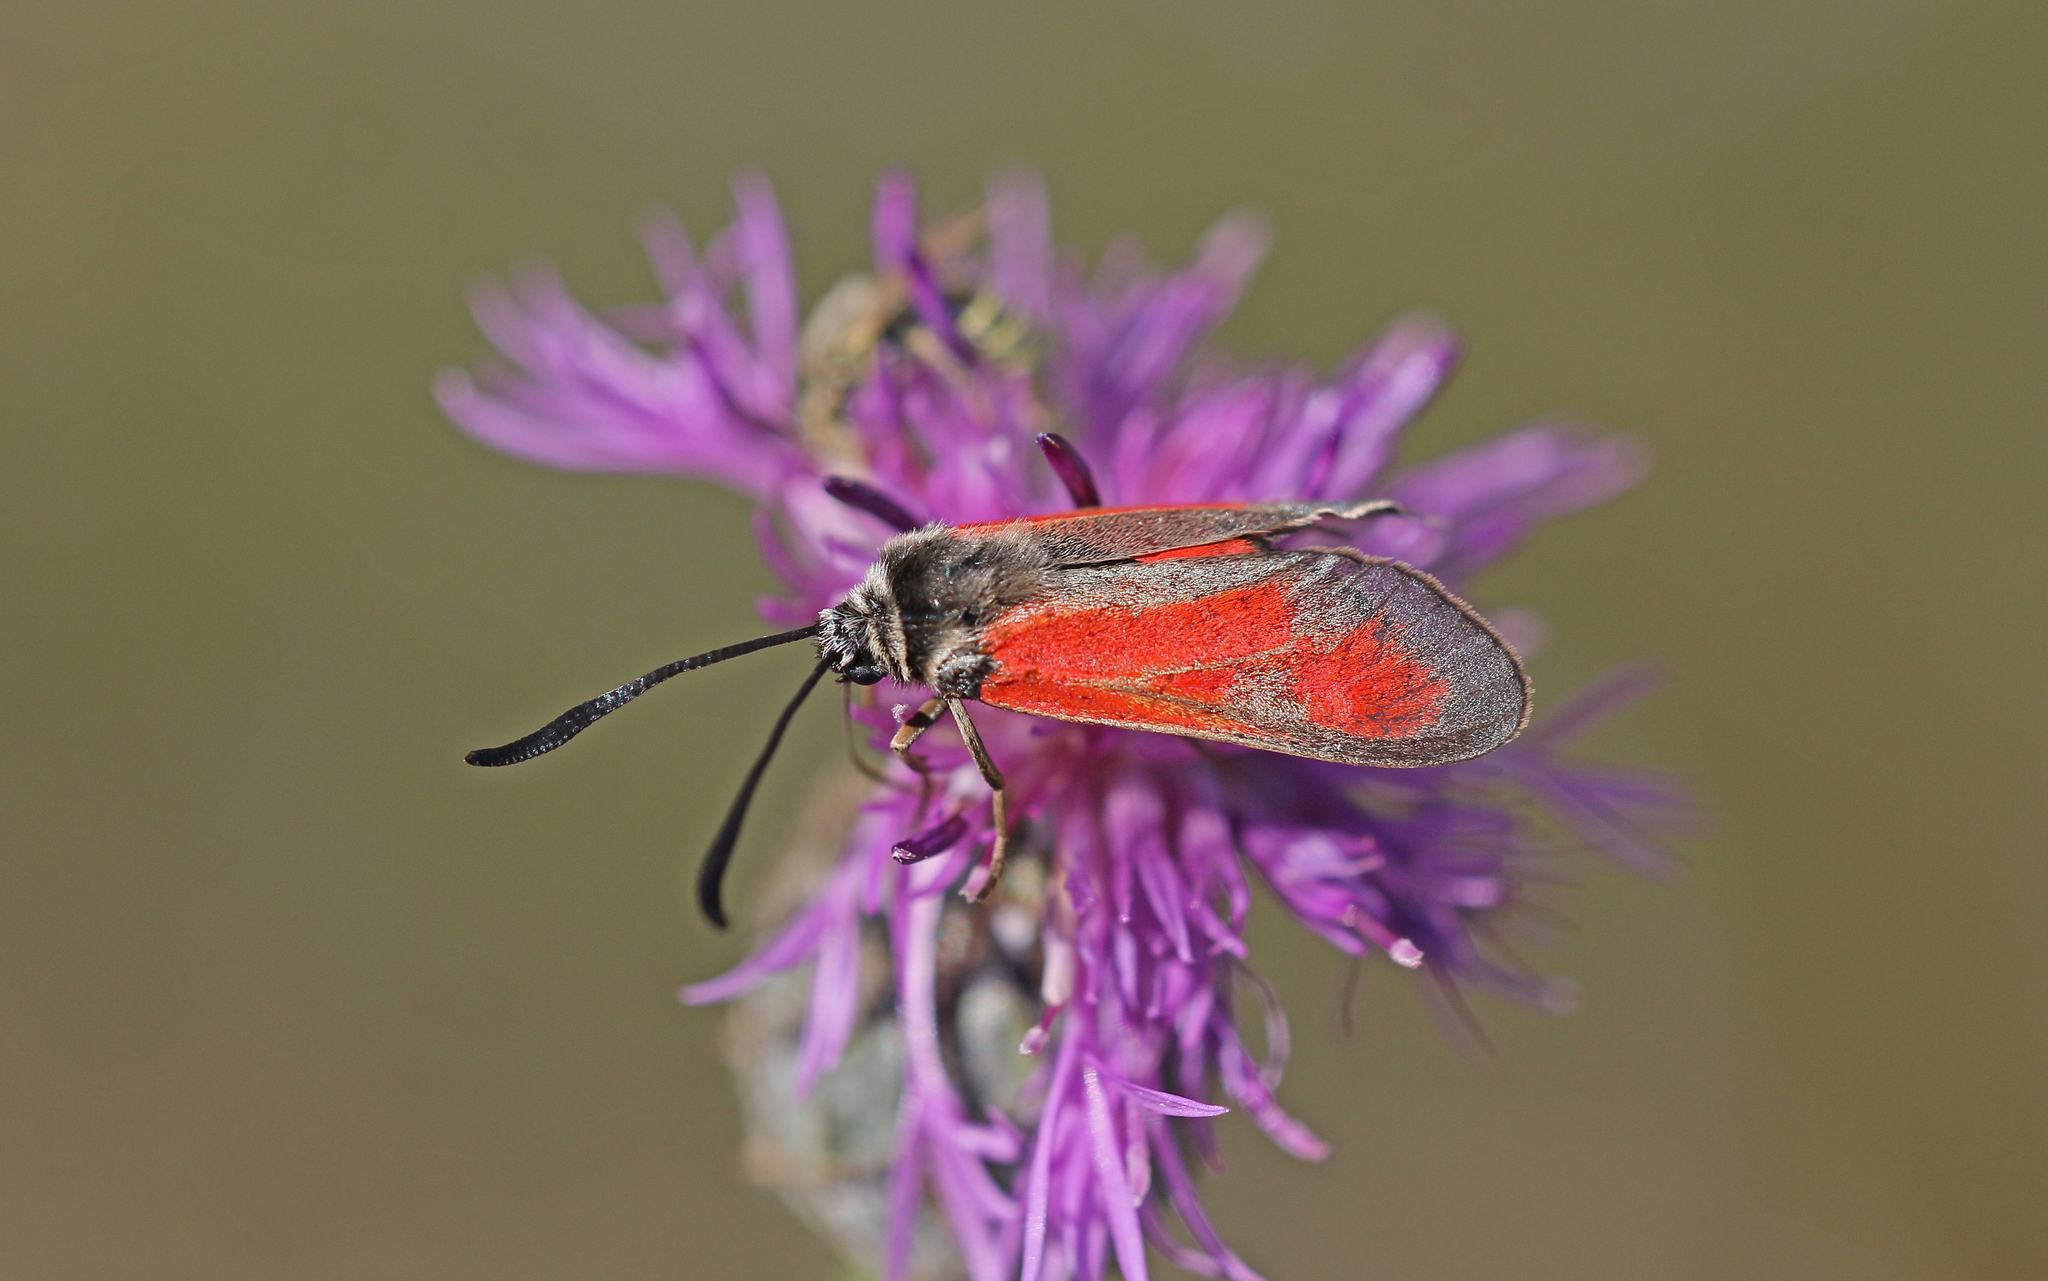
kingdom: Animalia
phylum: Arthropoda
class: Insecta
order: Lepidoptera
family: Zygaenidae
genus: Zygaena
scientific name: Zygaena punctum
